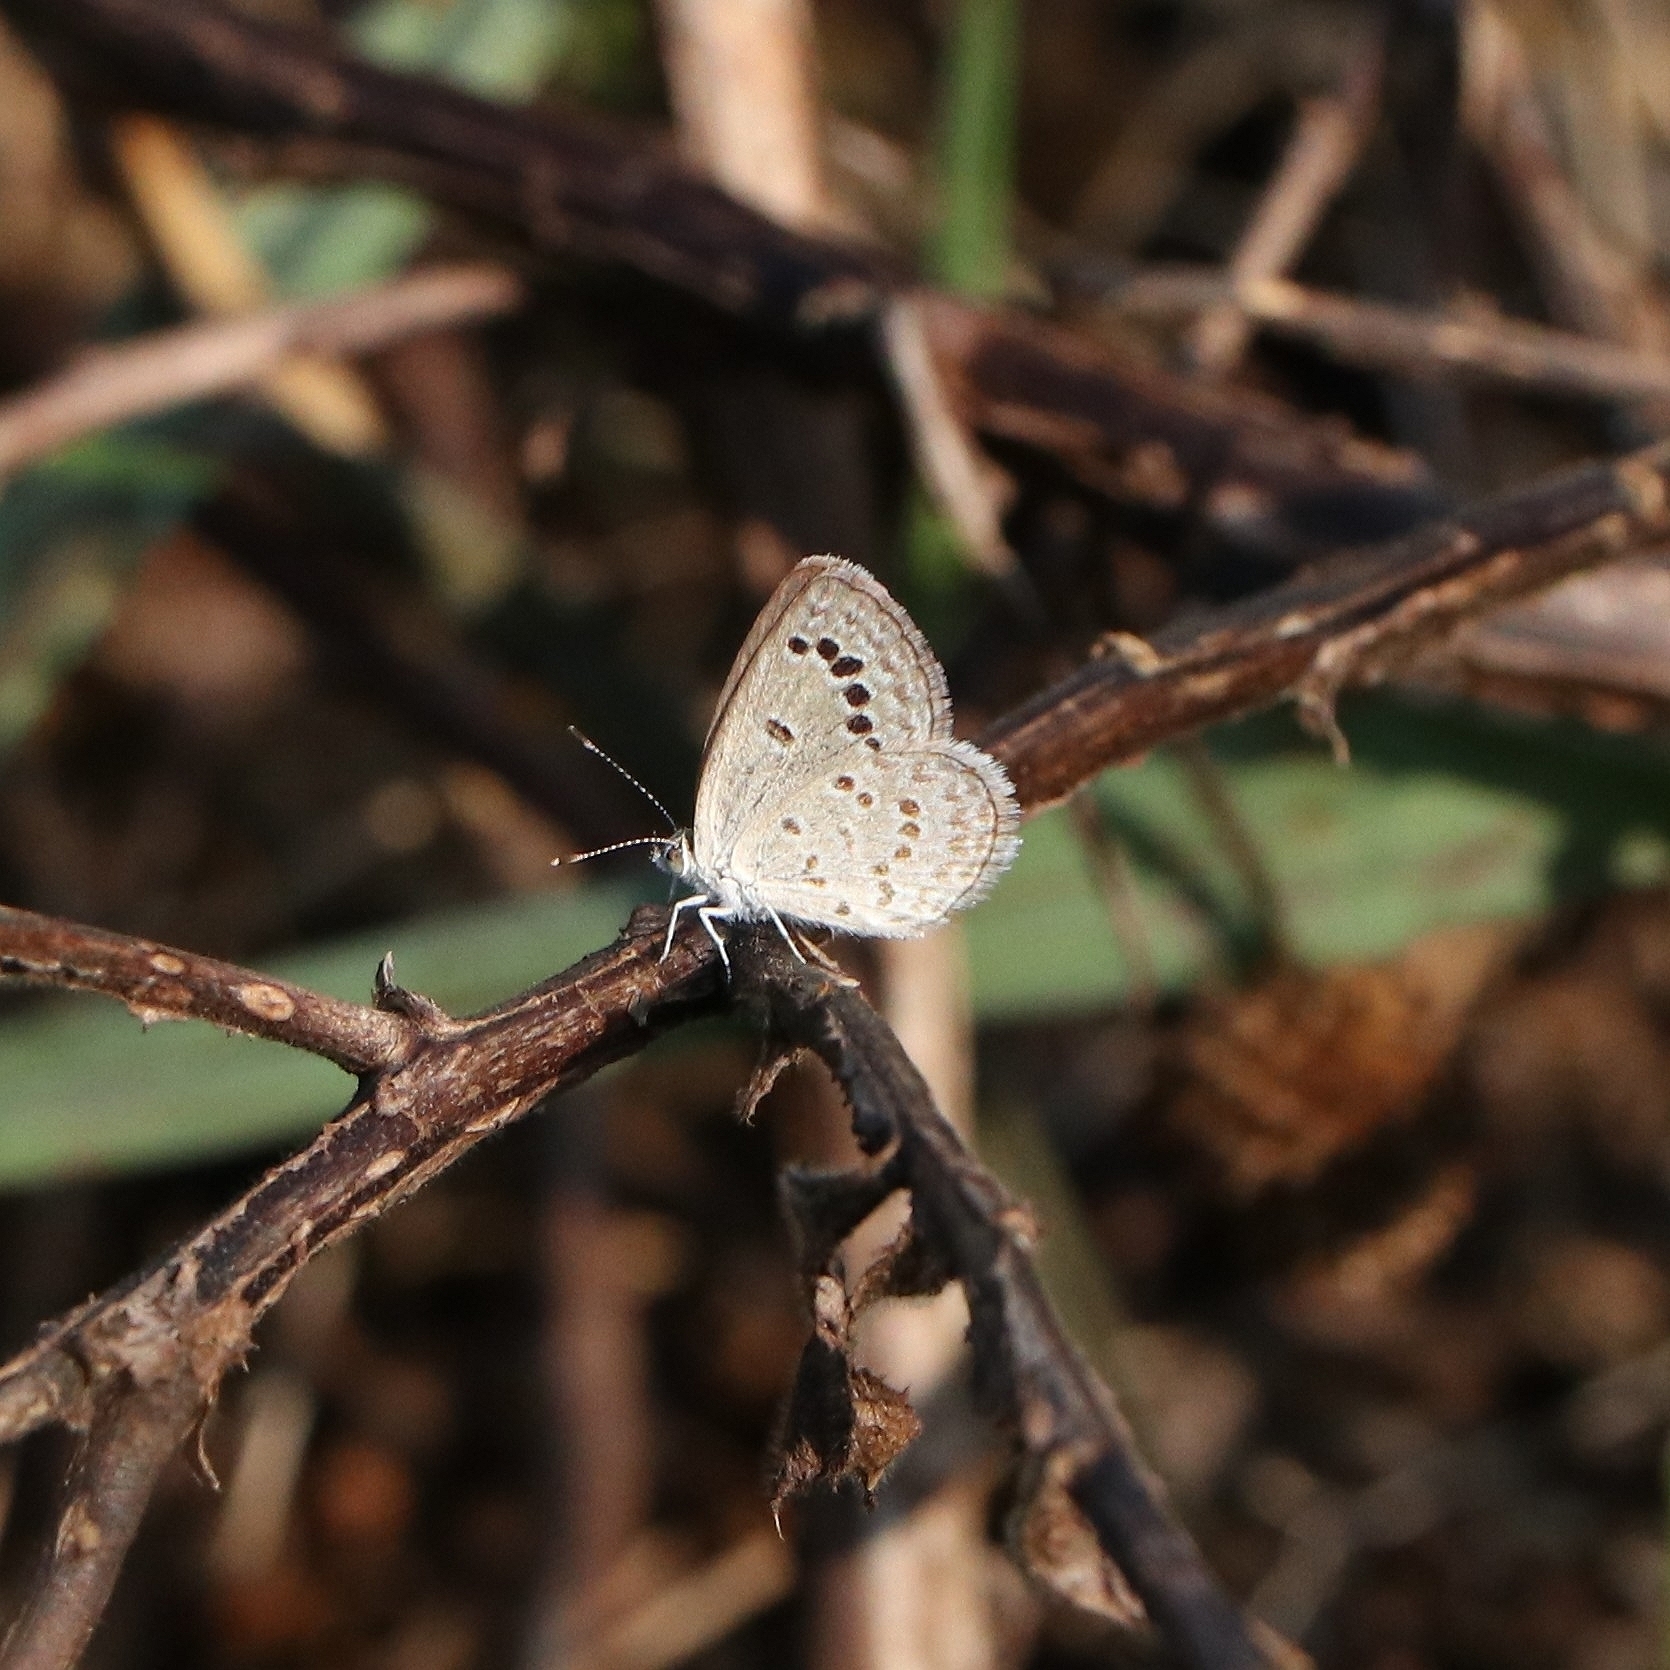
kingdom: Animalia
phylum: Arthropoda
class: Insecta
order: Lepidoptera
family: Lycaenidae
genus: Zizina
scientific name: Zizina otis
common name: Lesser grass blue
